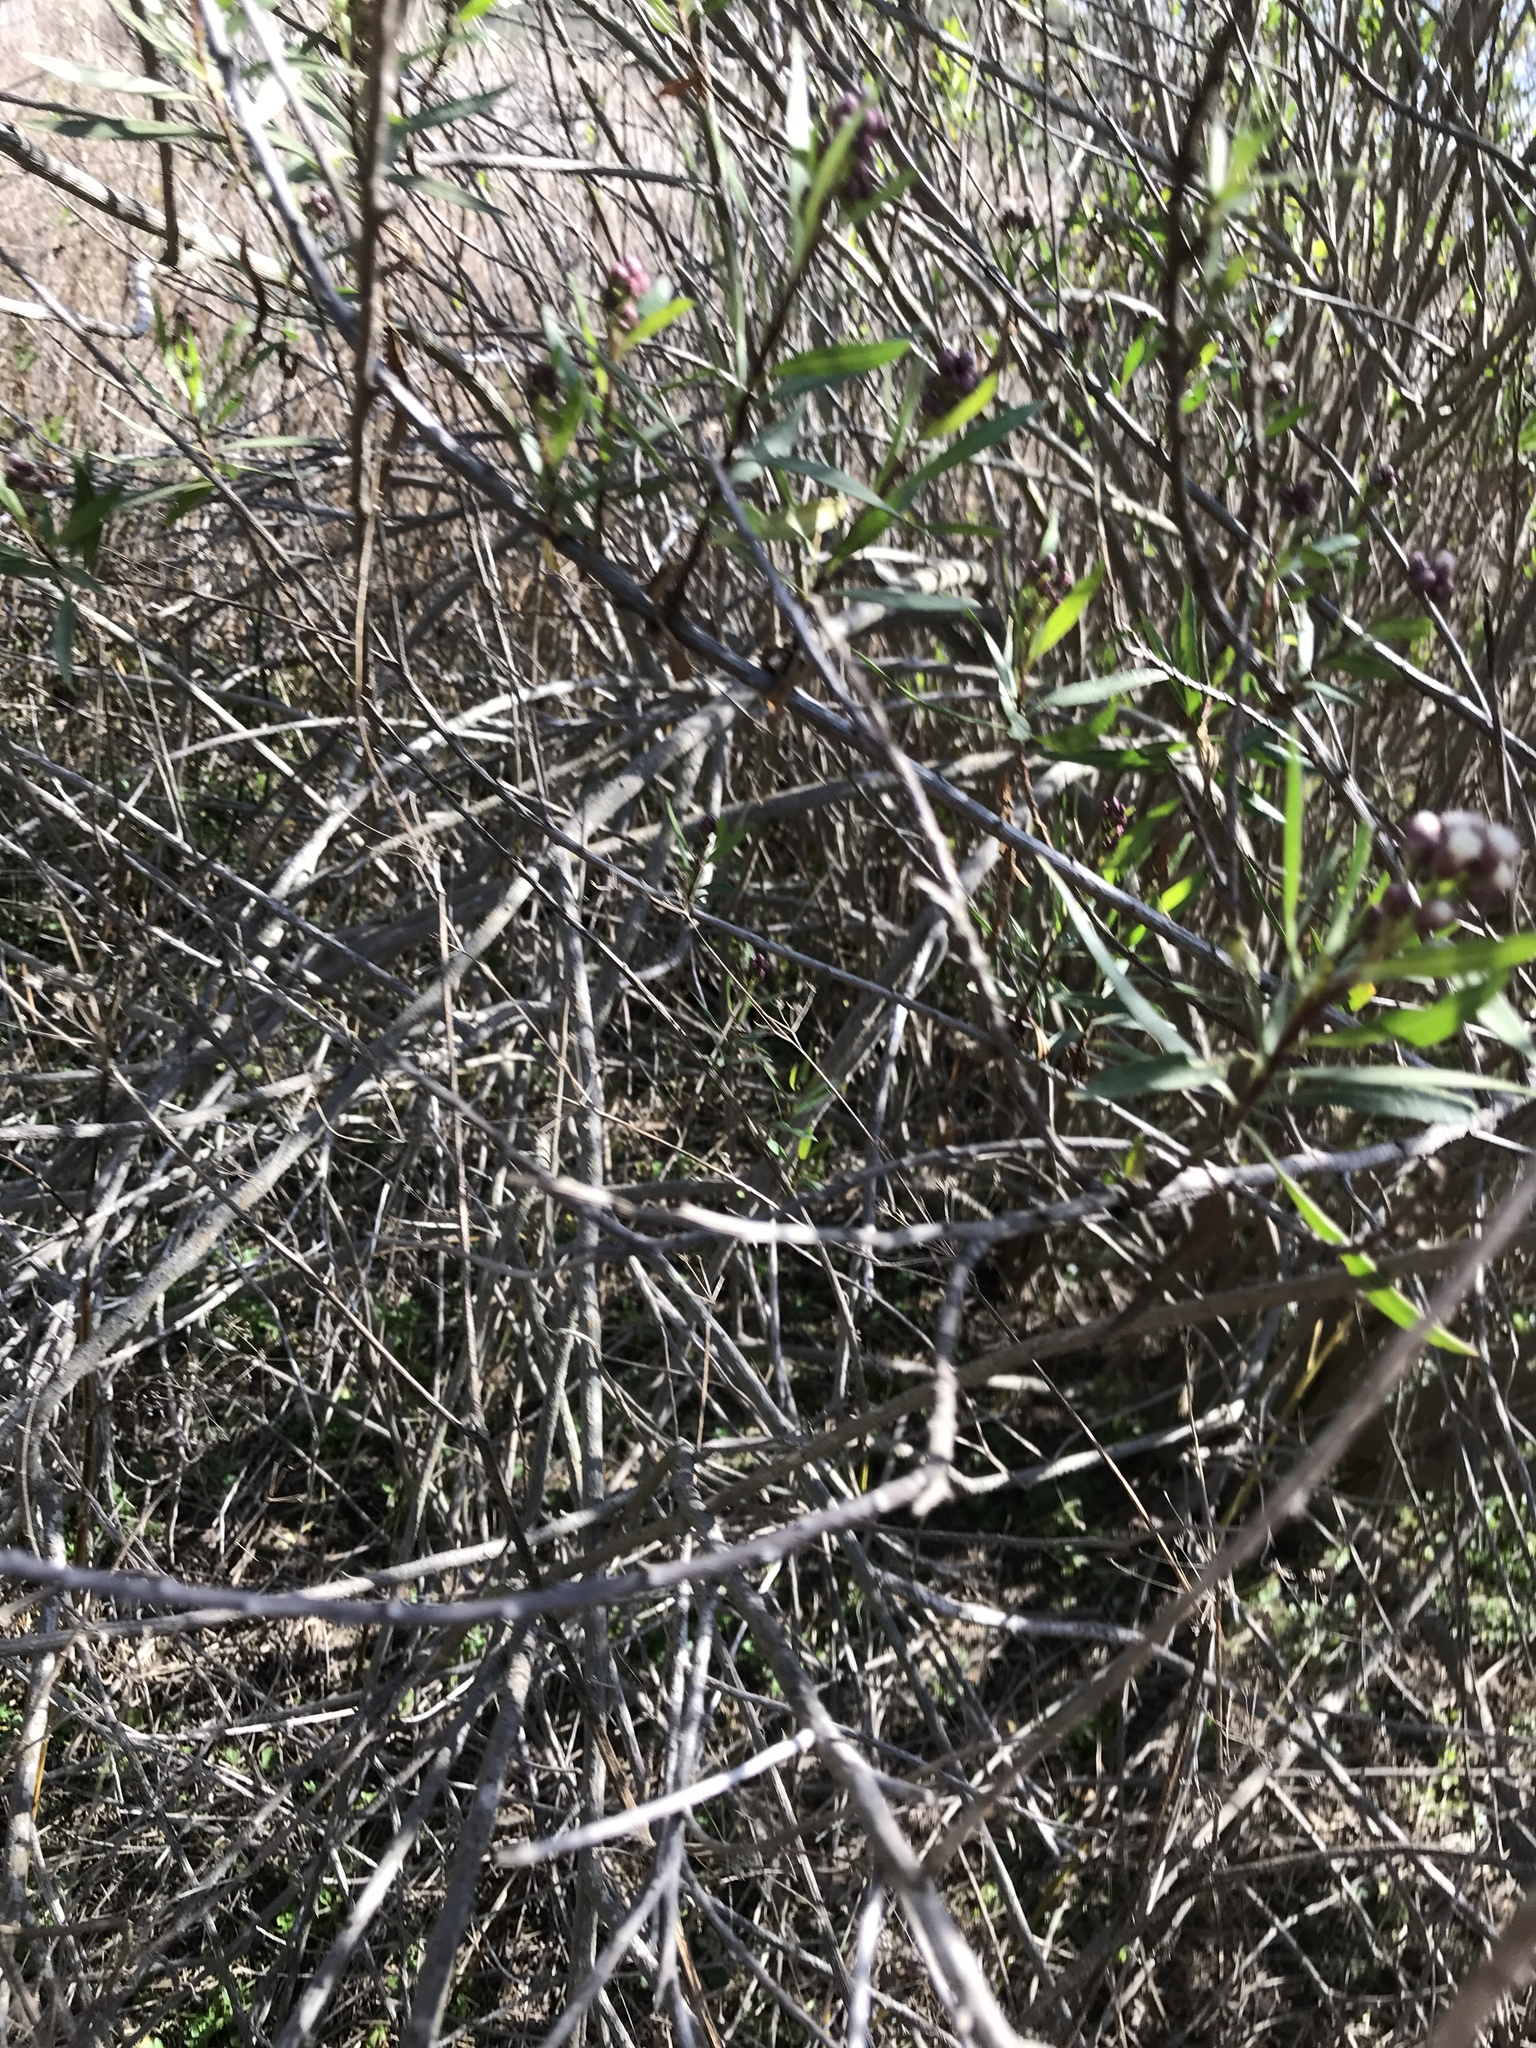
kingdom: Plantae
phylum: Tracheophyta
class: Magnoliopsida
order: Asterales
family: Asteraceae
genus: Baccharis
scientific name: Baccharis salicifolia
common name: Sticky baccharis
